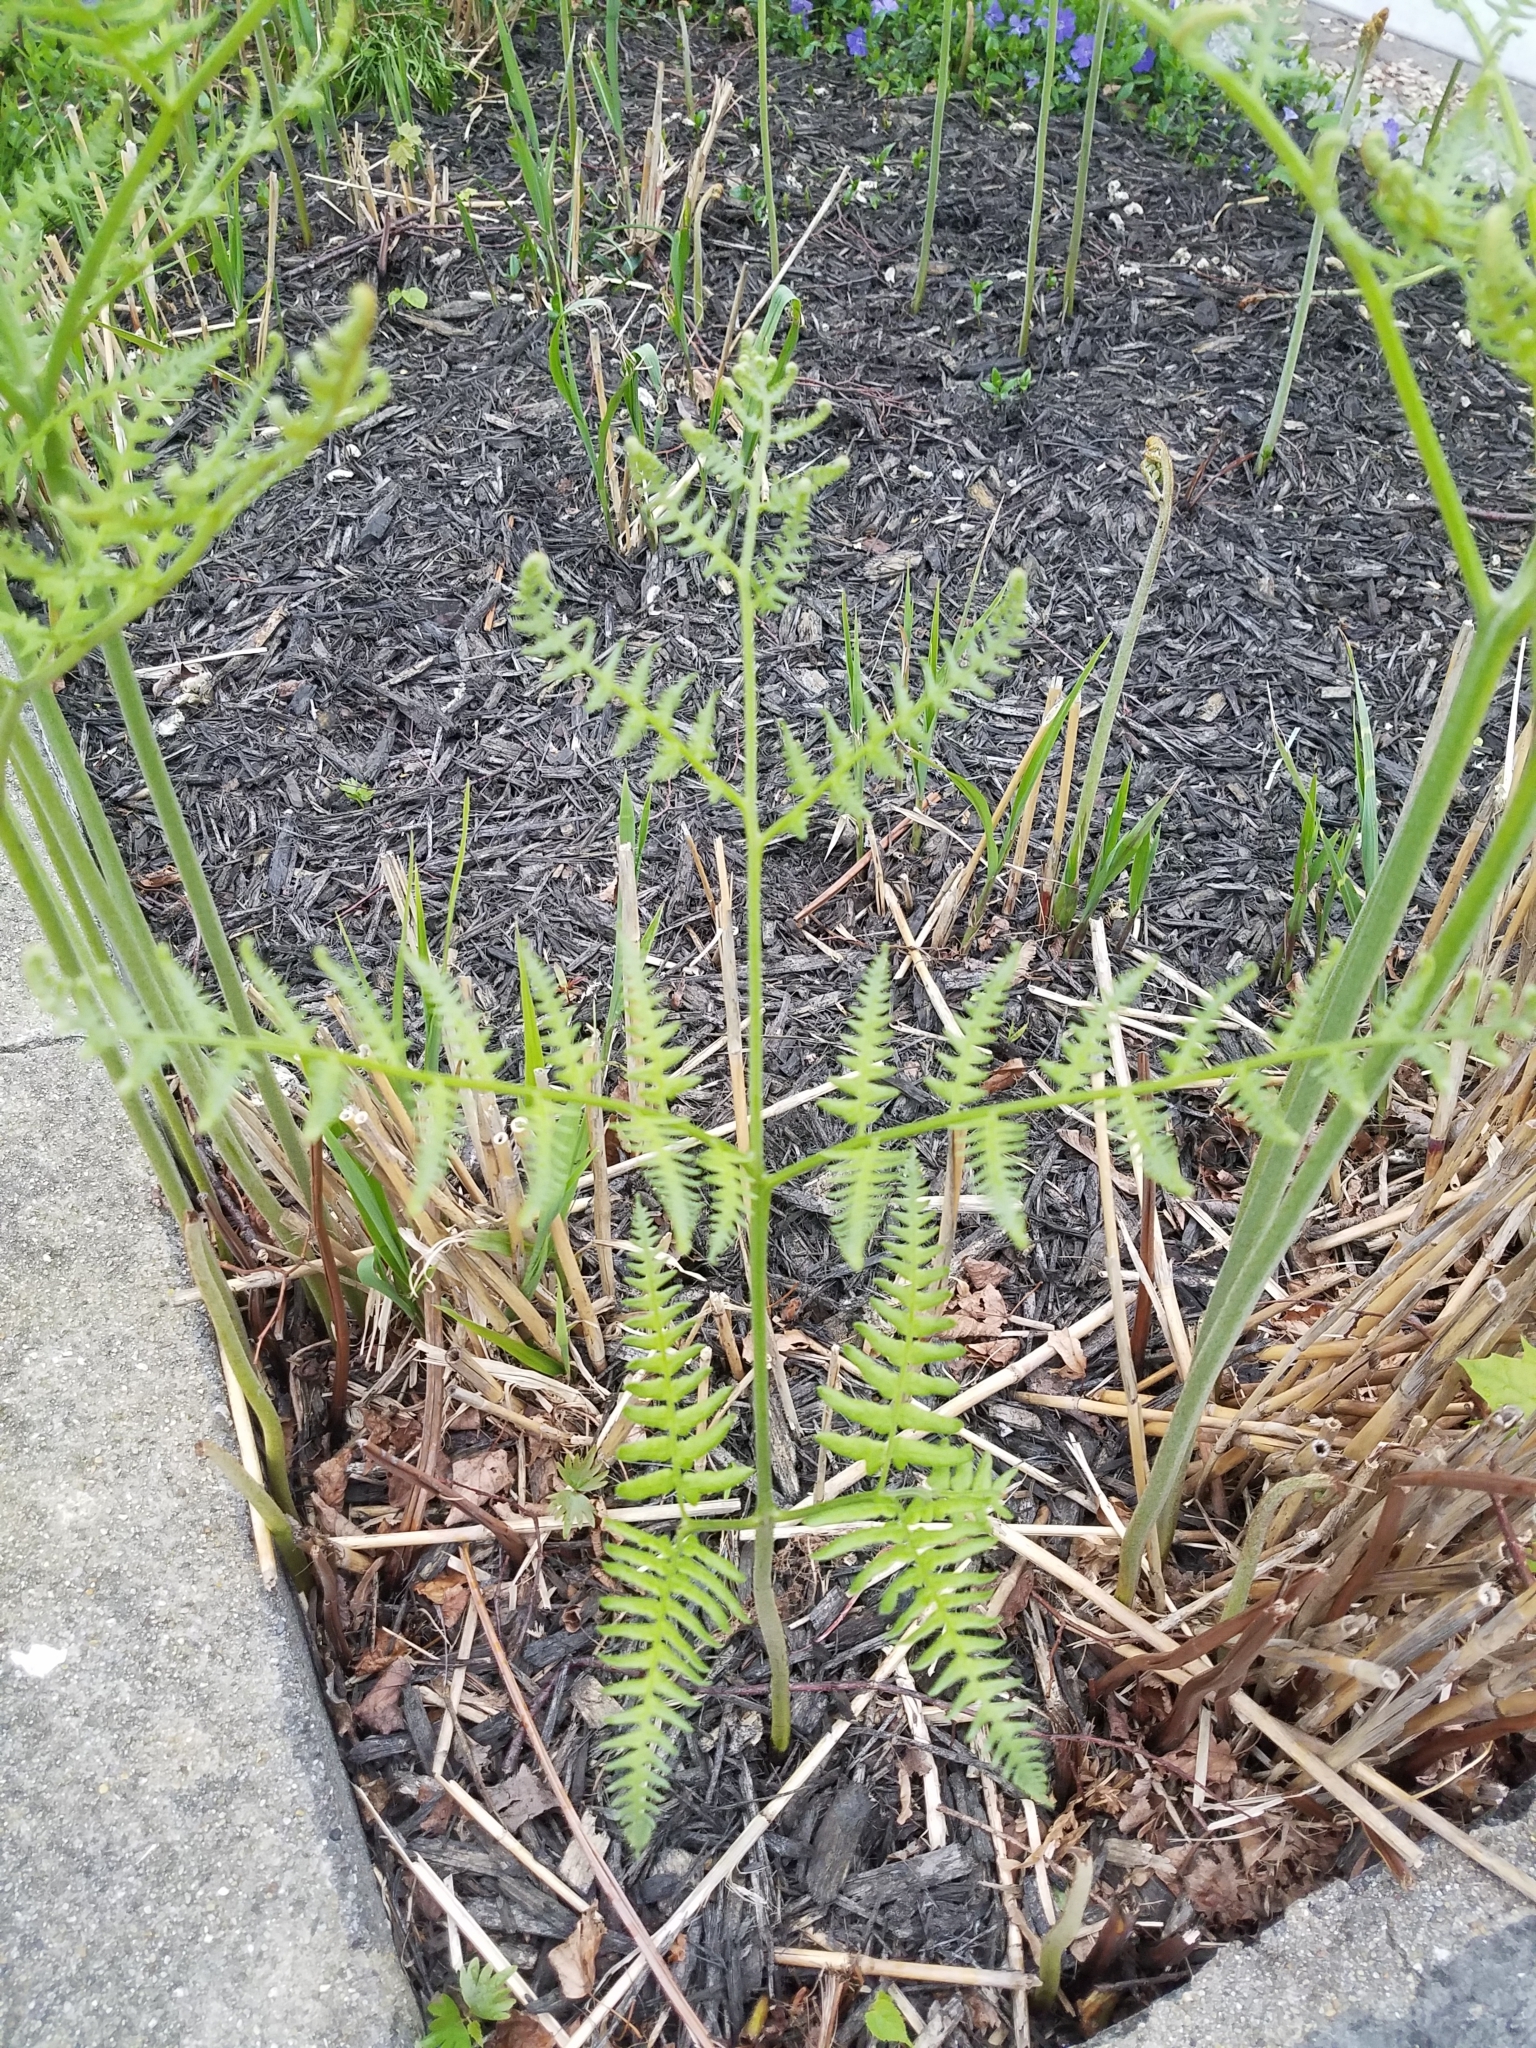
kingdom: Plantae
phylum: Tracheophyta
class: Polypodiopsida
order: Polypodiales
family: Dennstaedtiaceae
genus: Pteridium
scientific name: Pteridium aquilinum
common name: Bracken
